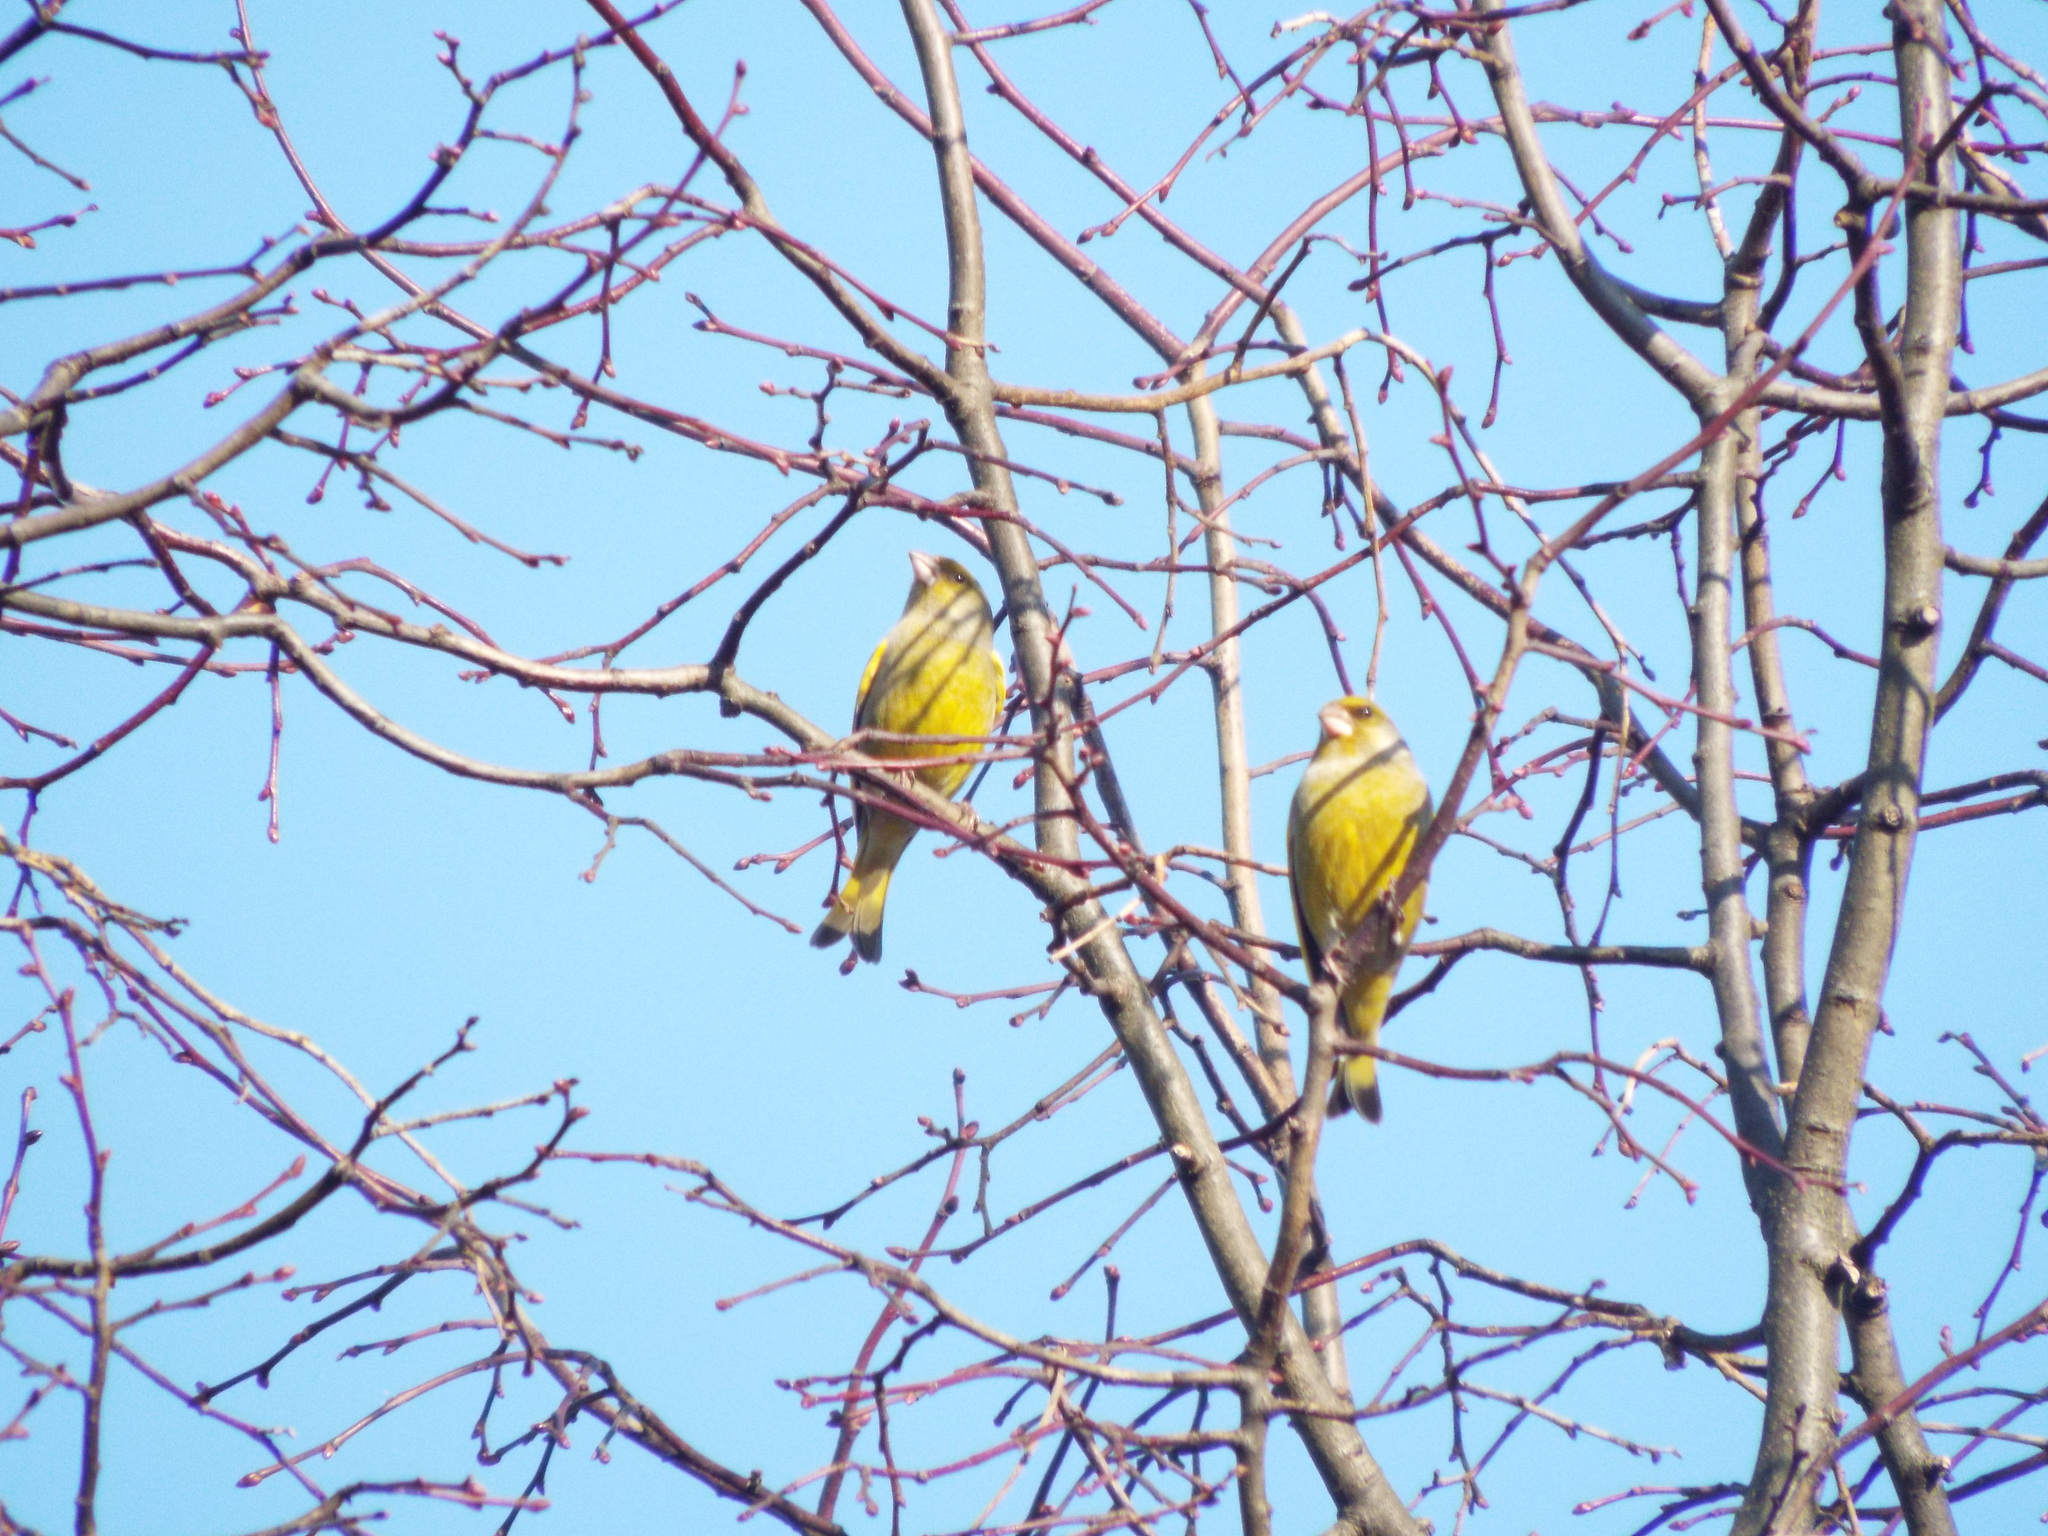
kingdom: Plantae
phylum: Tracheophyta
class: Liliopsida
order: Poales
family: Poaceae
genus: Chloris
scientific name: Chloris chloris
